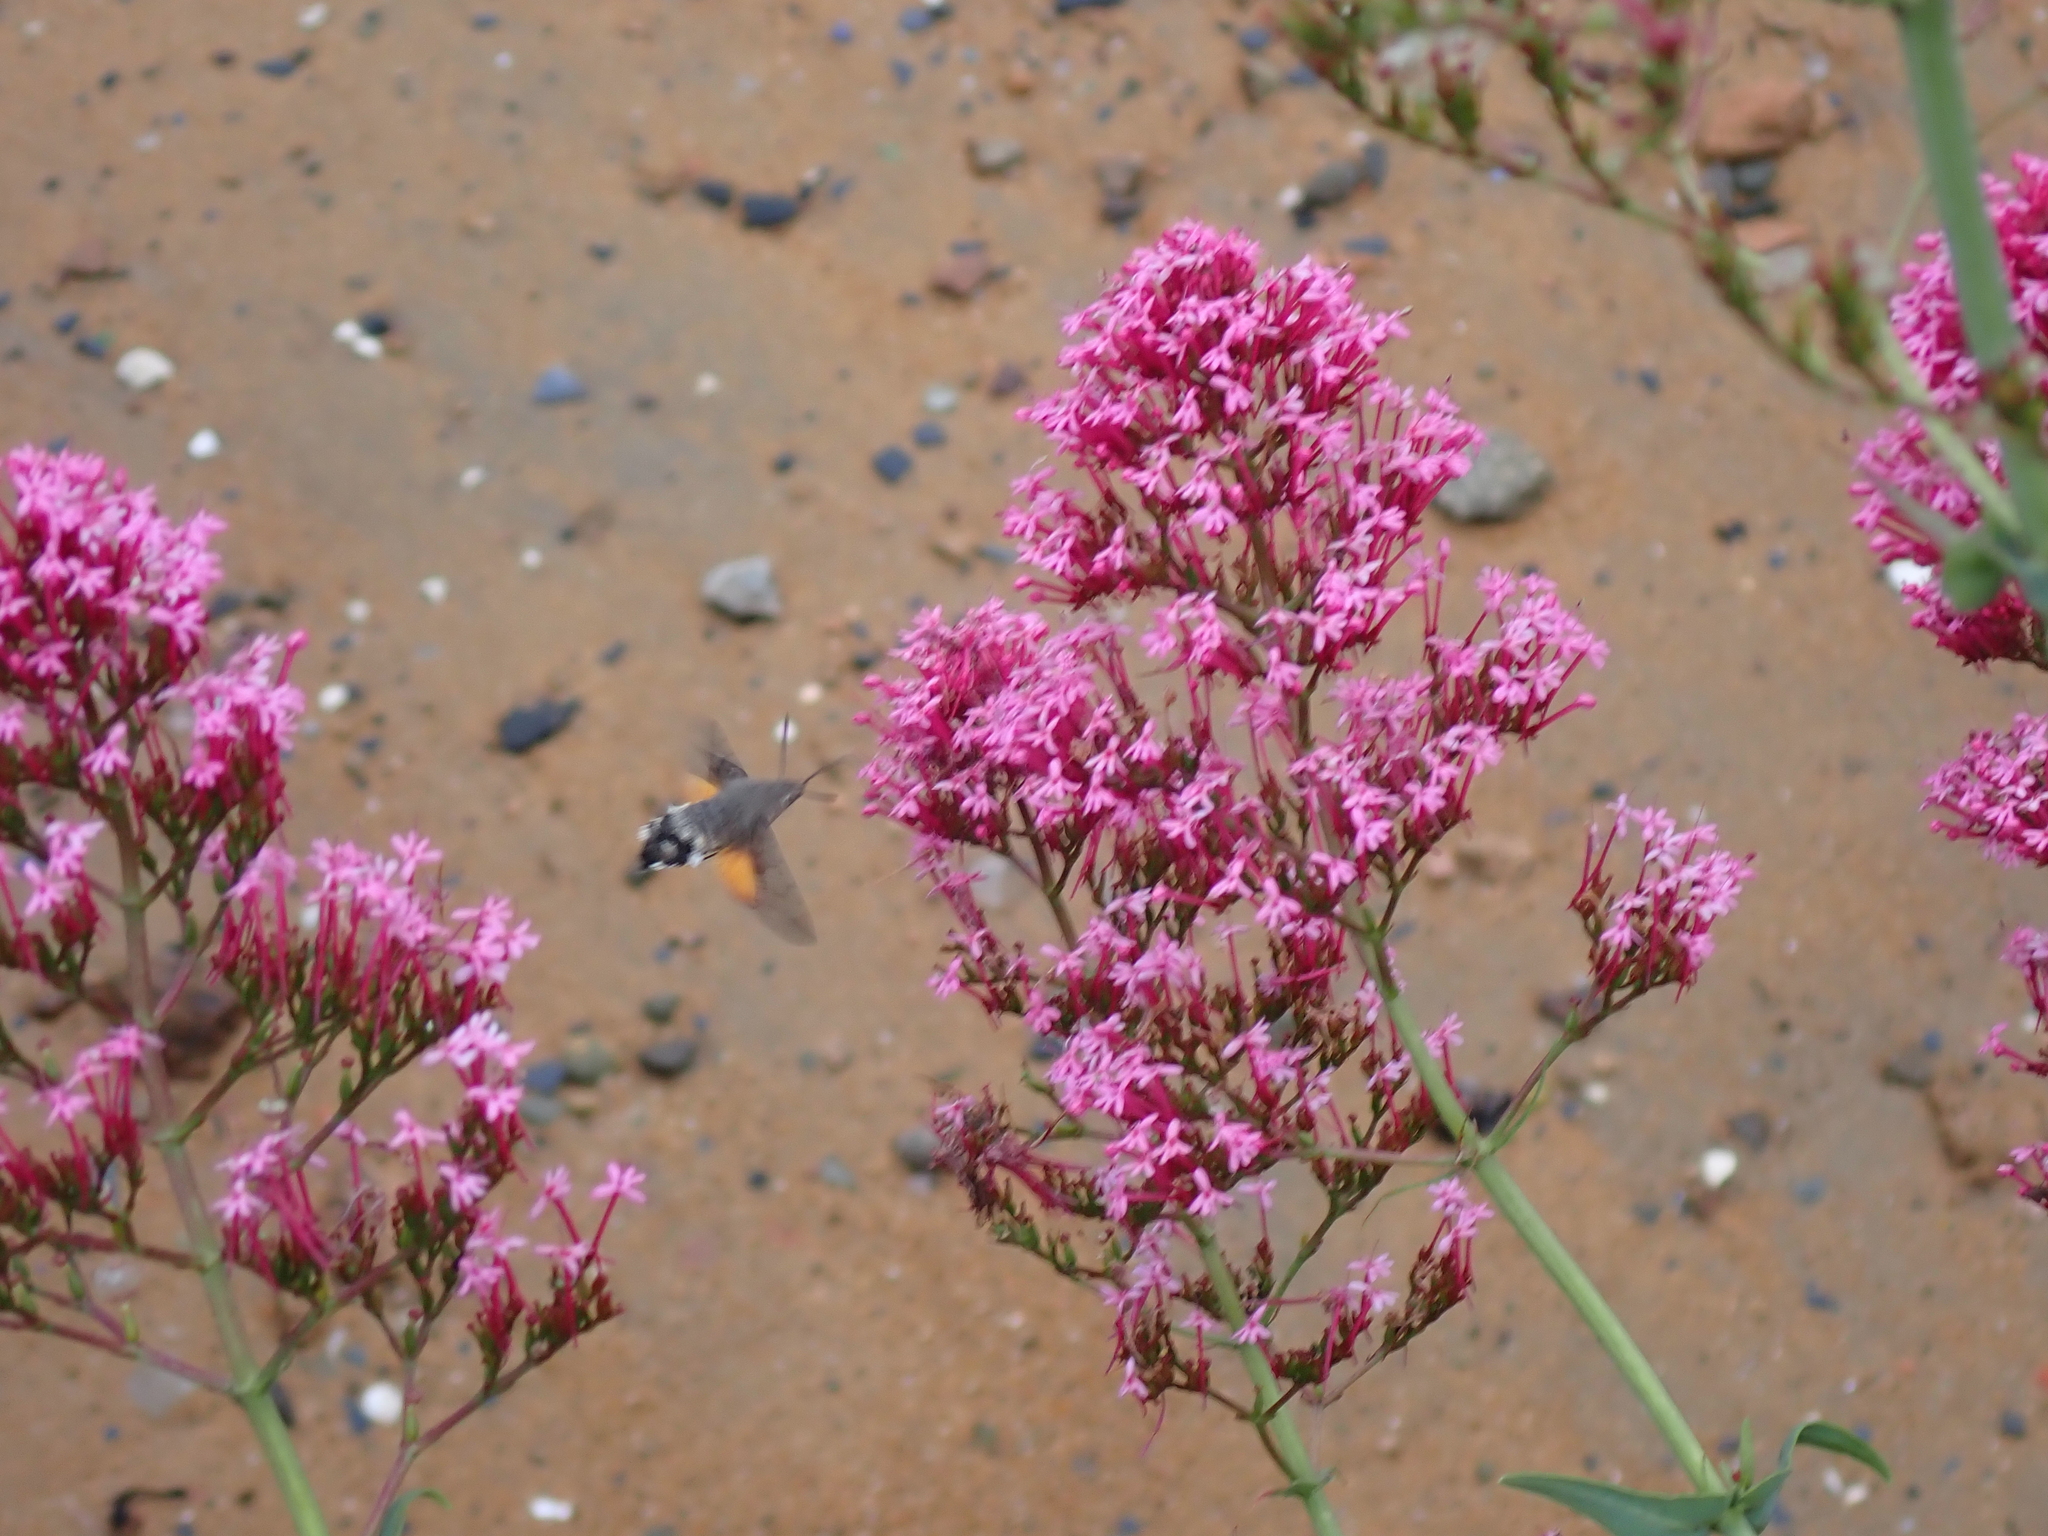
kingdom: Animalia
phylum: Arthropoda
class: Insecta
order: Lepidoptera
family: Sphingidae
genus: Macroglossum
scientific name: Macroglossum stellatarum
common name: Humming-bird hawk-moth
